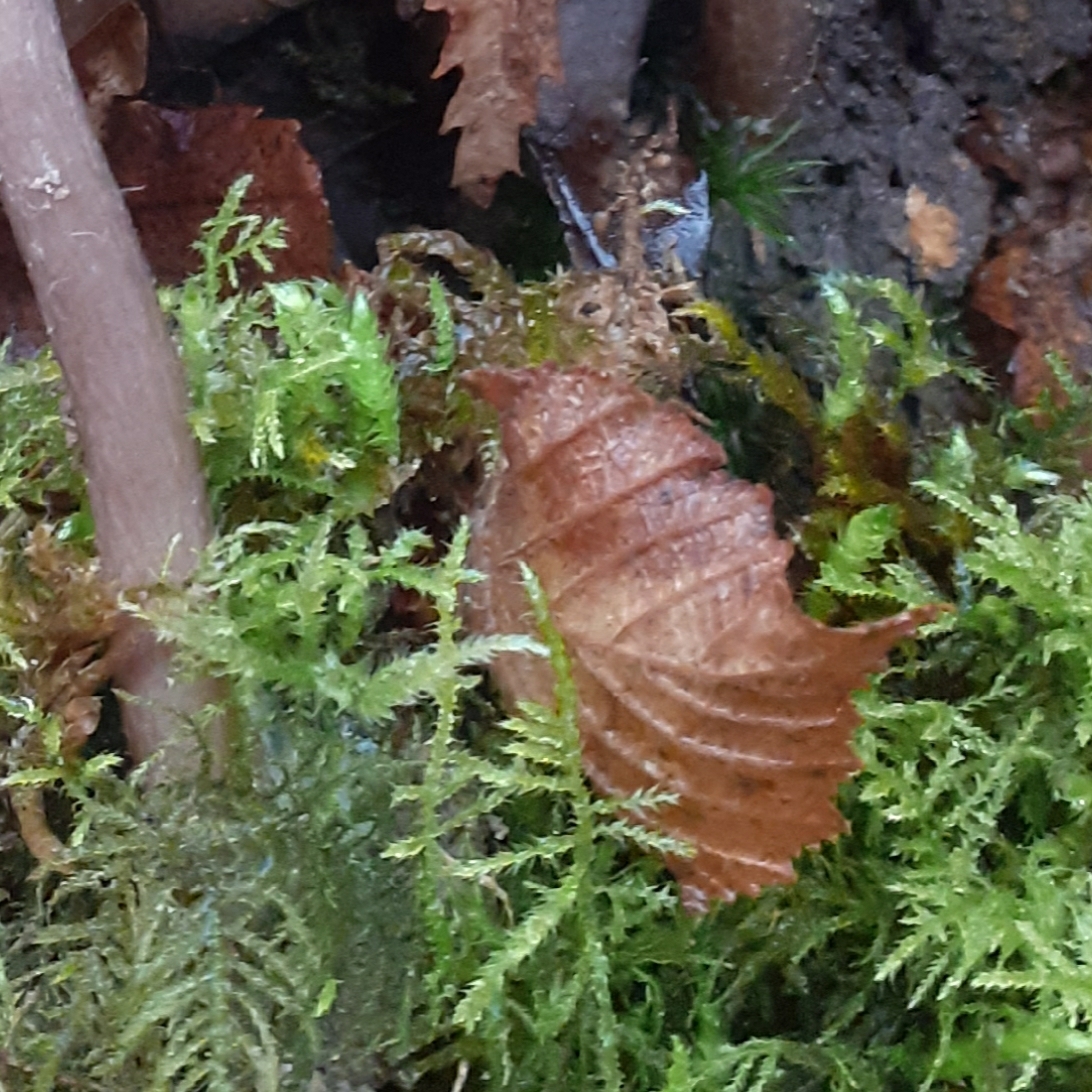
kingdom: Plantae
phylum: Bryophyta
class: Bryopsida
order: Hypnales
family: Brachytheciaceae
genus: Kindbergia
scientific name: Kindbergia praelonga
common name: Slender beaked moss
